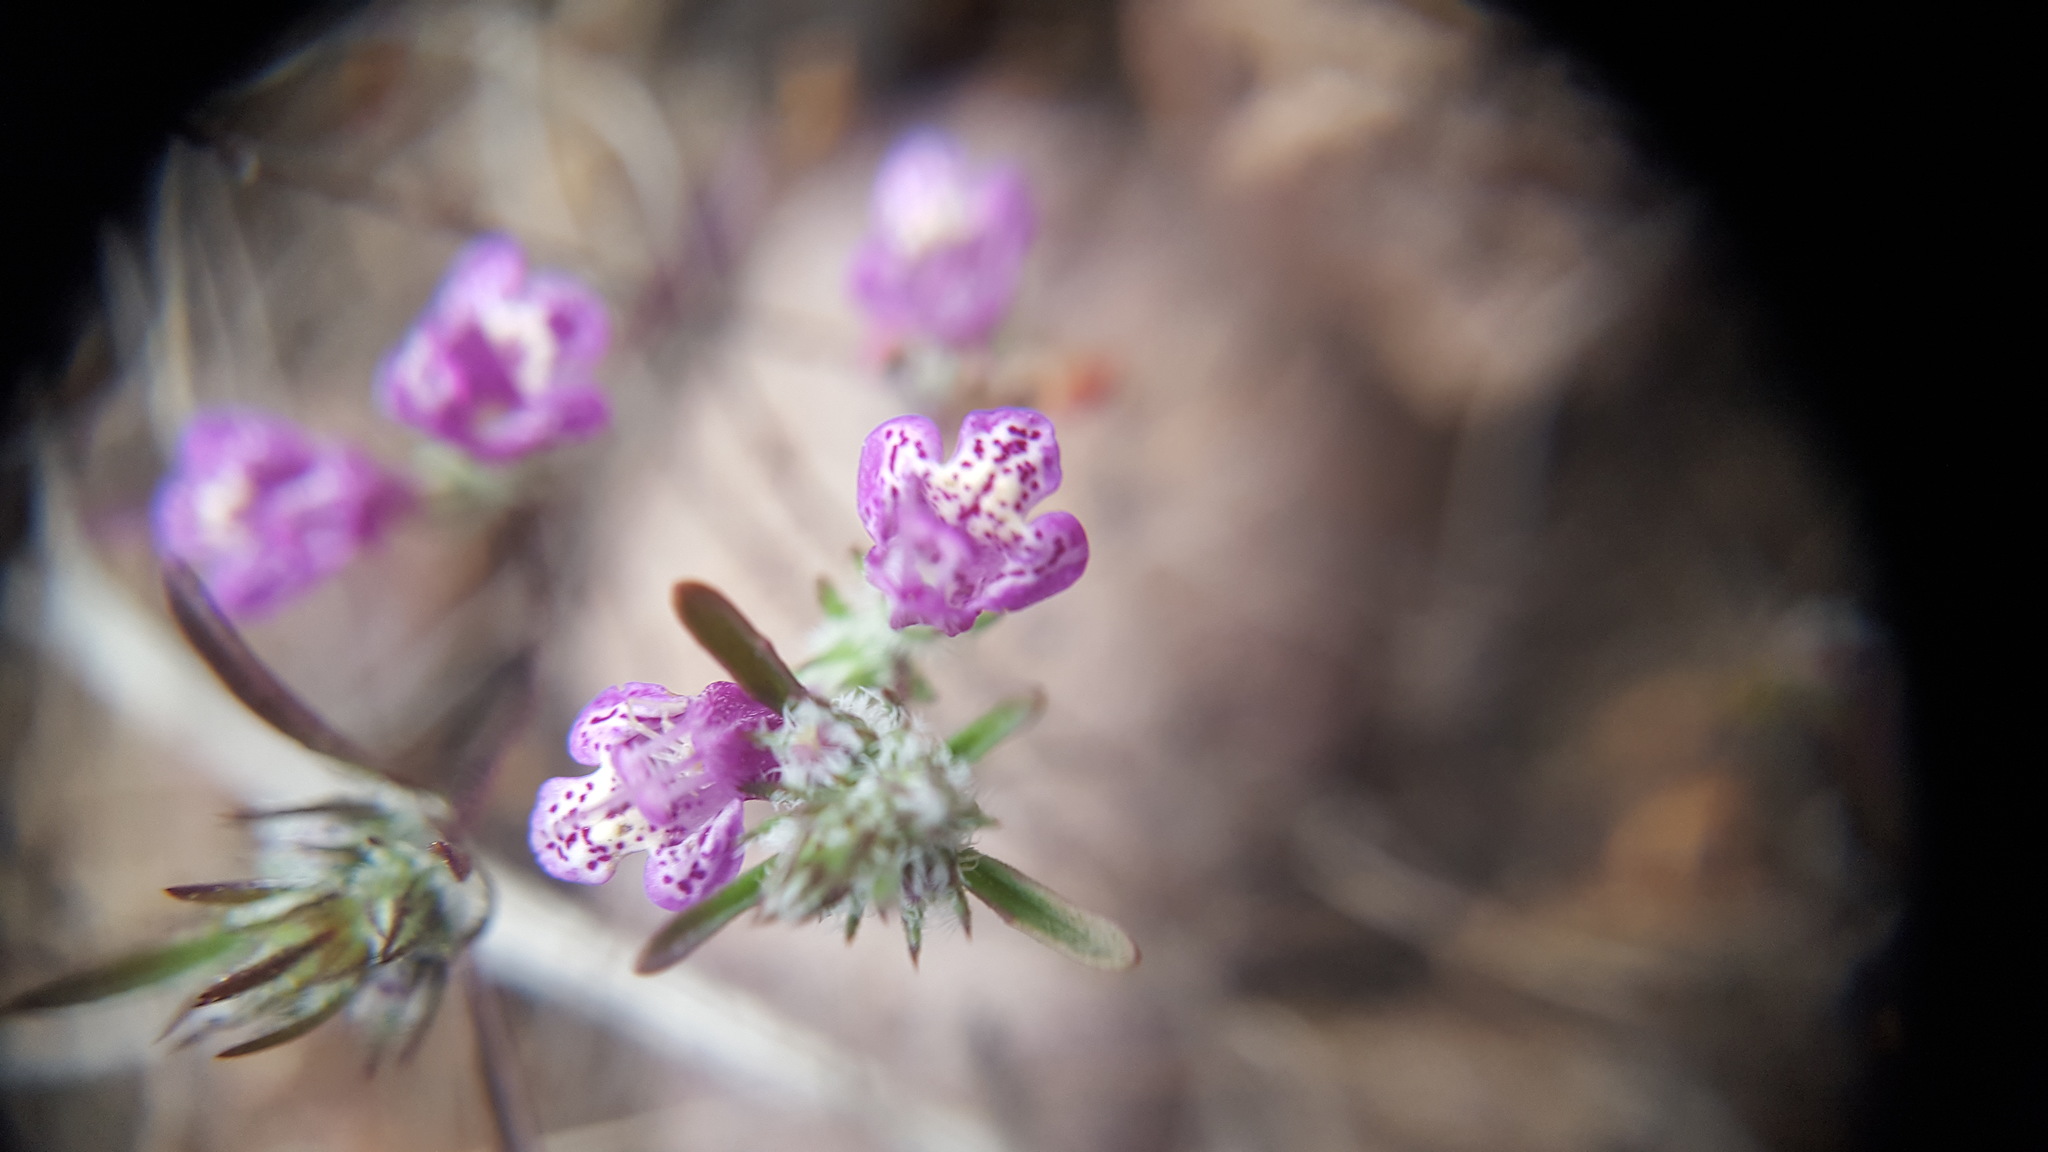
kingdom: Plantae
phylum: Tracheophyta
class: Magnoliopsida
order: Lamiales
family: Lamiaceae
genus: Pogogyne
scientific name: Pogogyne abramsii
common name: San diego mesa-mint
